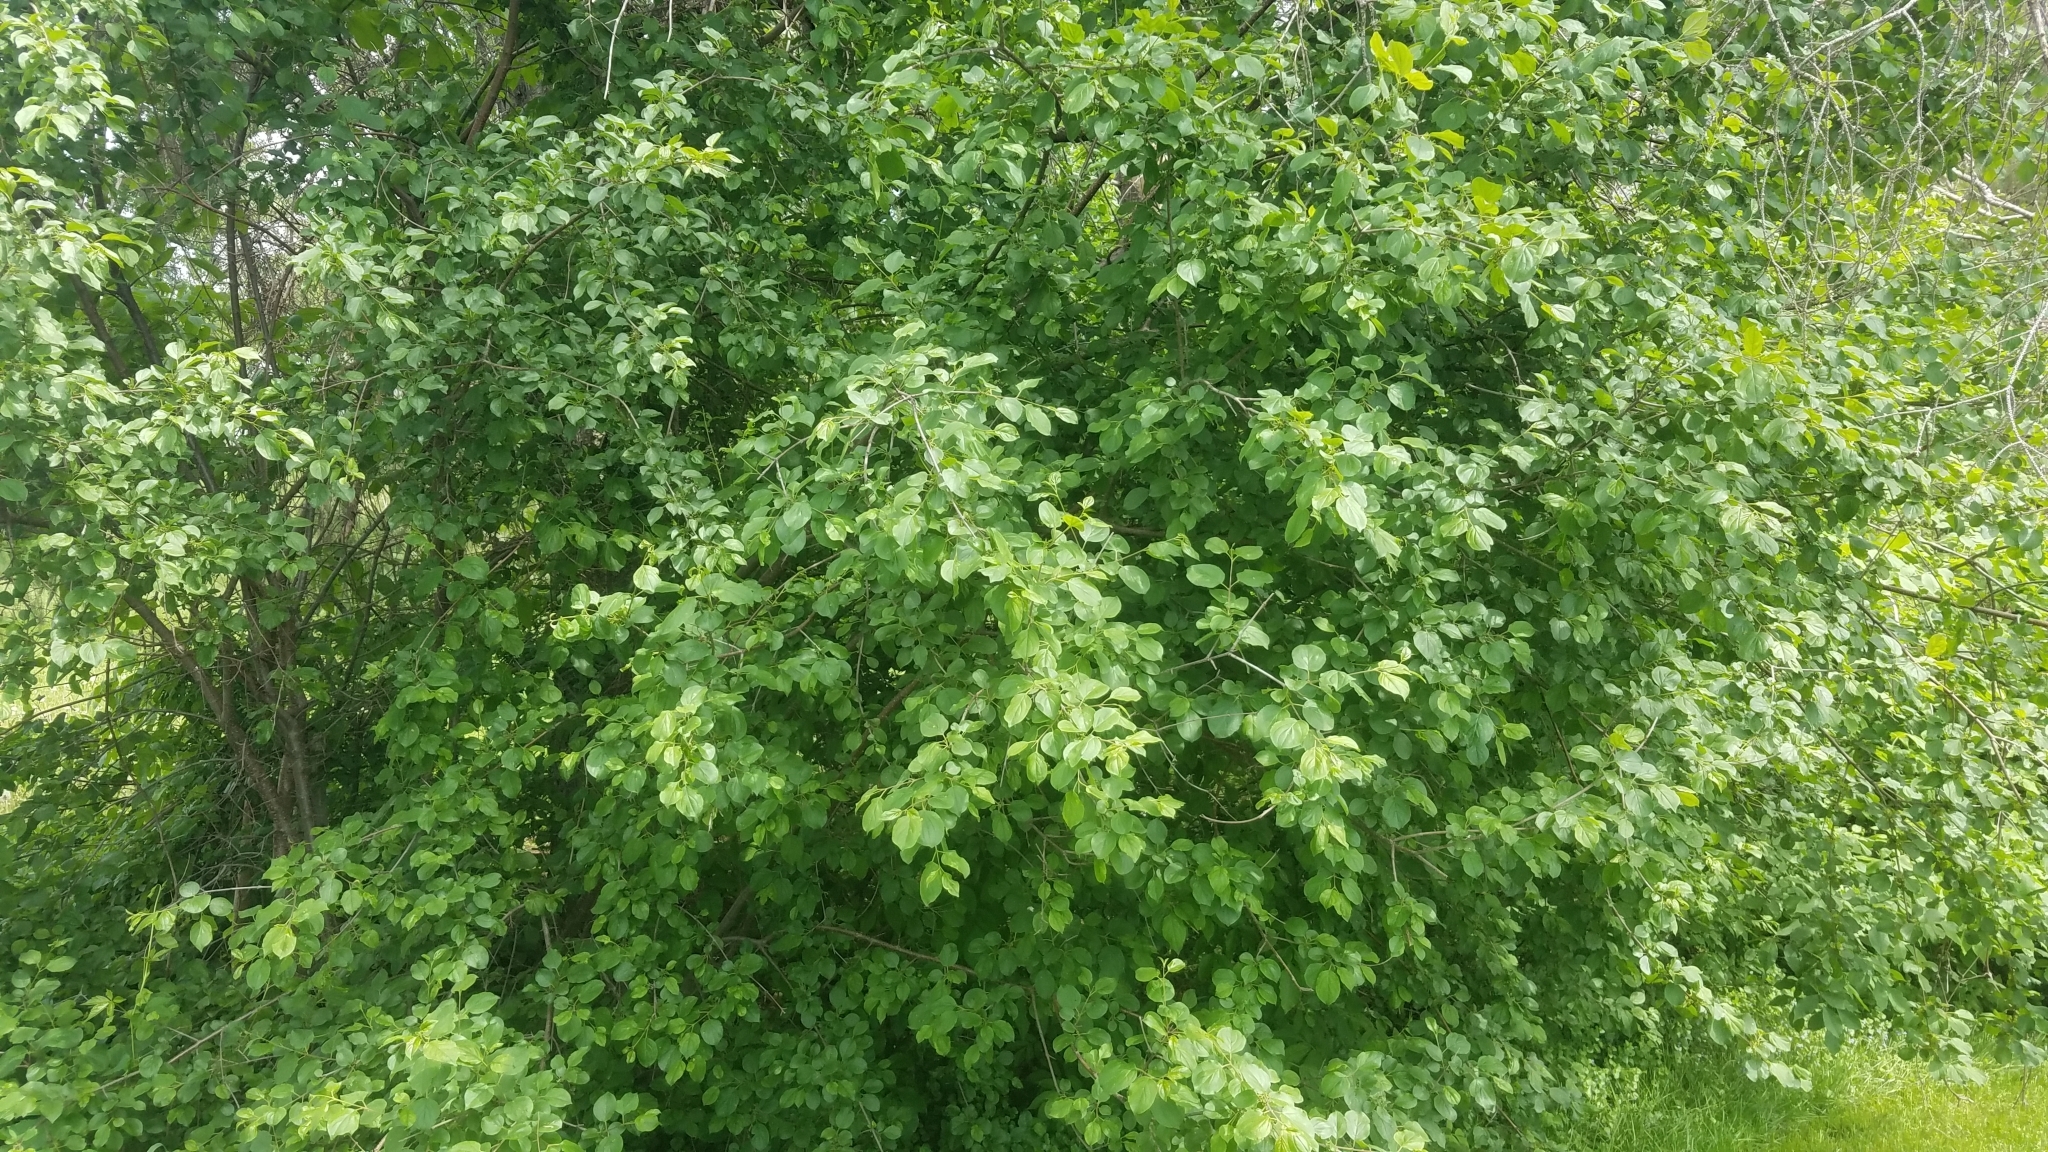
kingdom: Plantae
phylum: Tracheophyta
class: Magnoliopsida
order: Rosales
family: Rhamnaceae
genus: Rhamnus
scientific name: Rhamnus cathartica
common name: Common buckthorn
